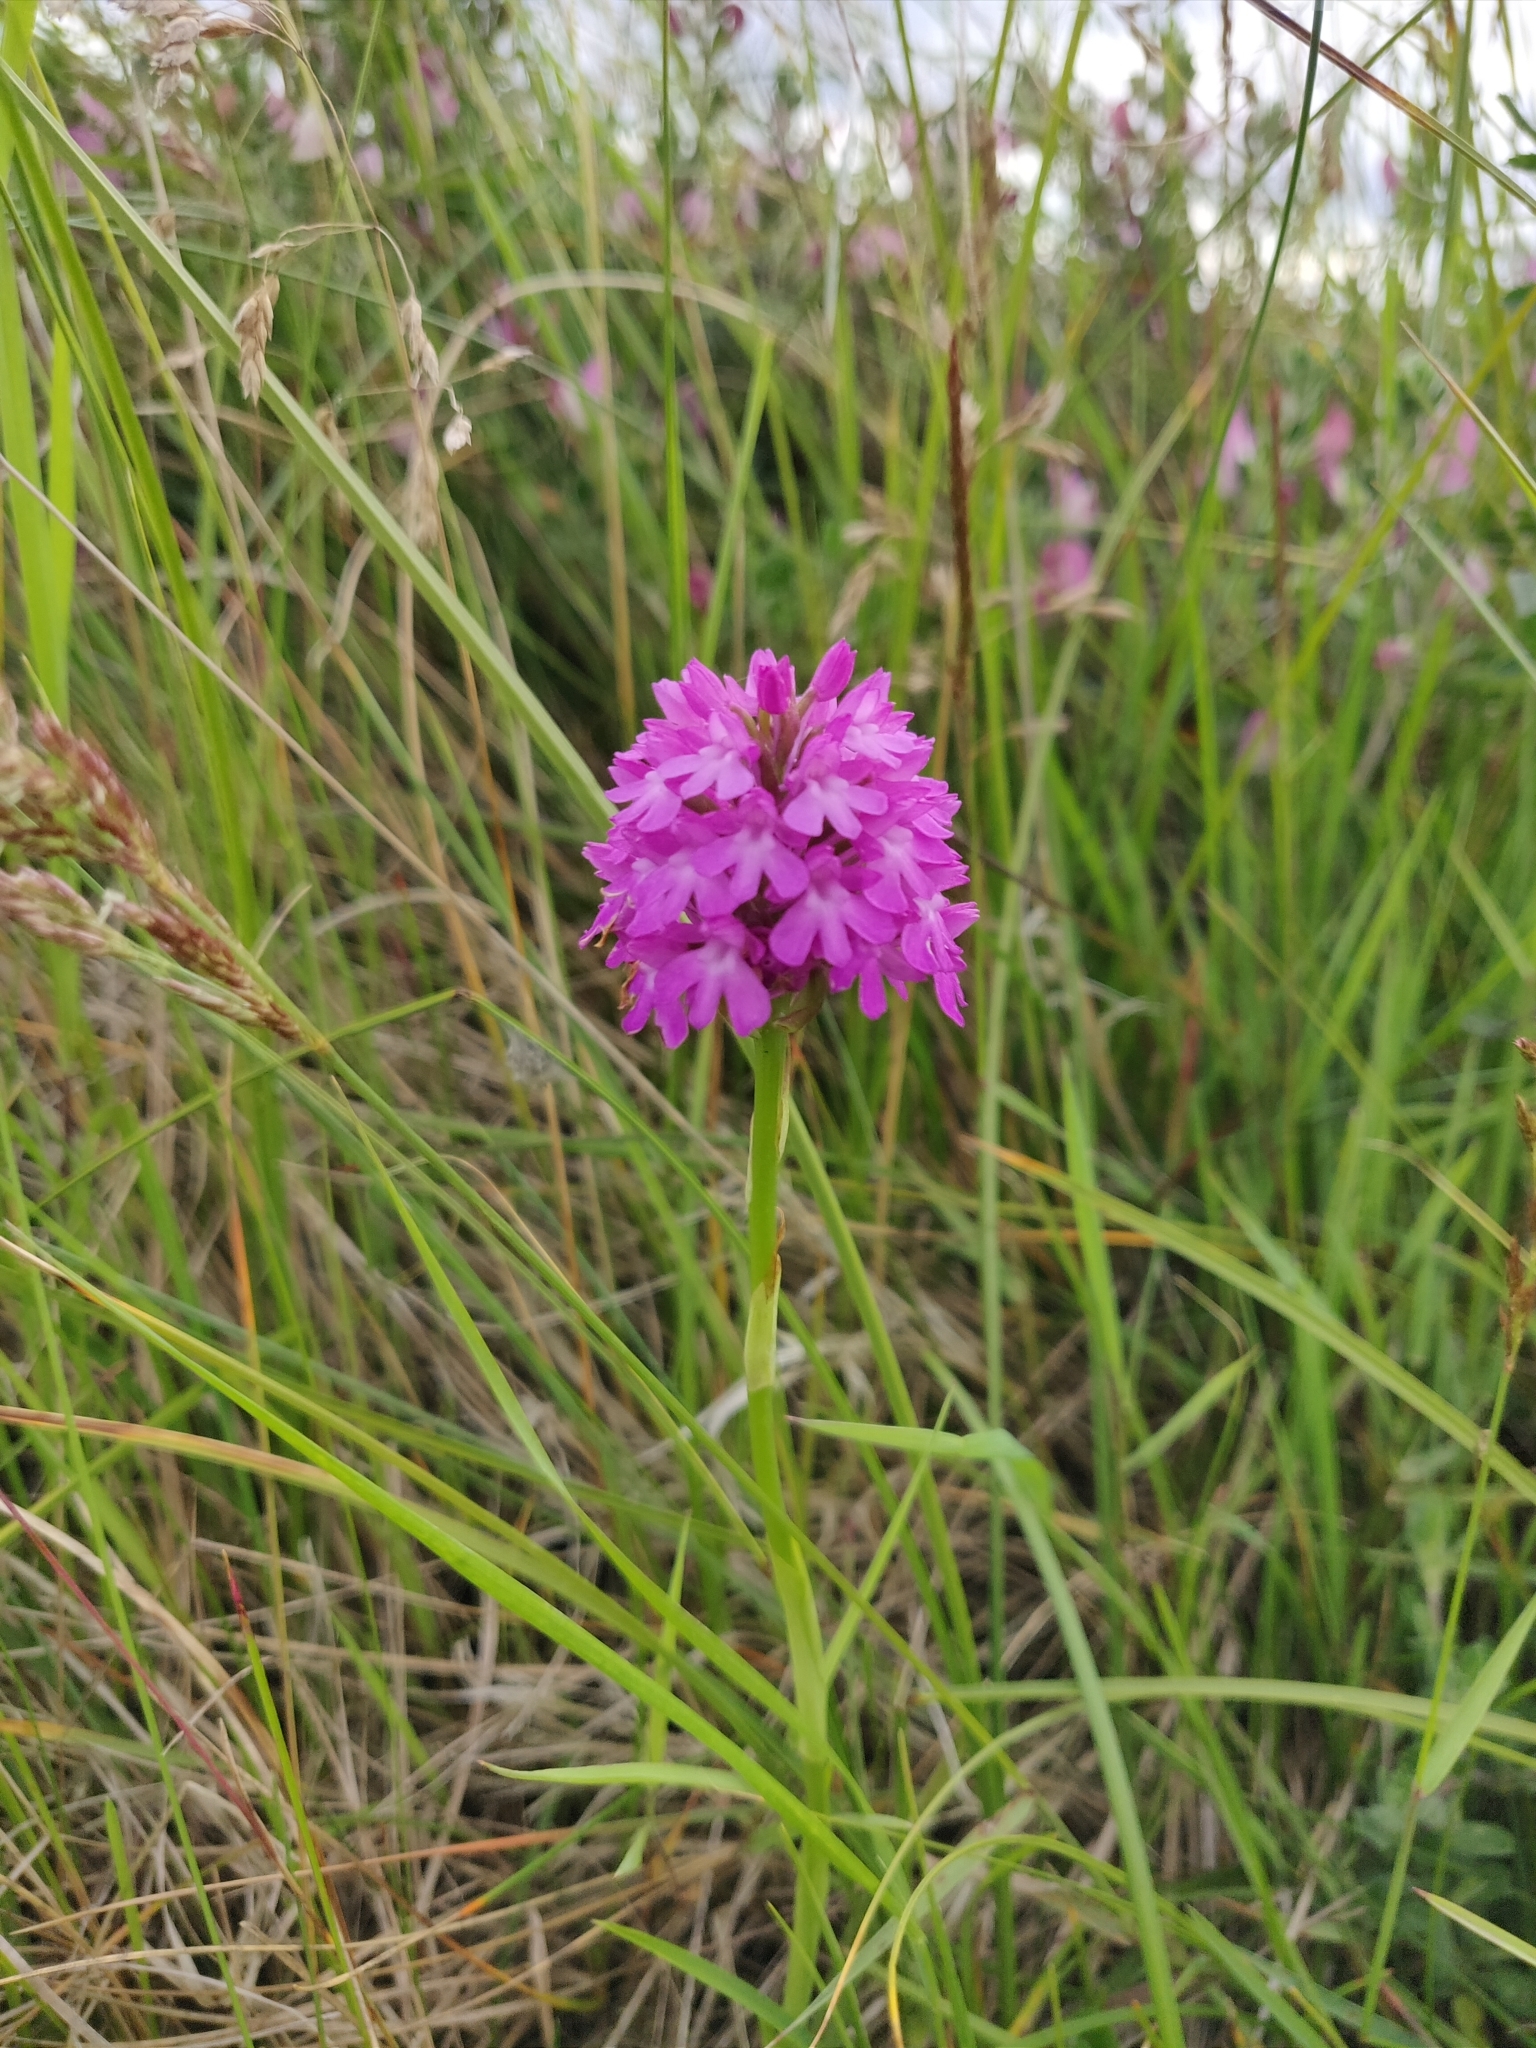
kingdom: Plantae
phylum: Tracheophyta
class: Liliopsida
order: Asparagales
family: Orchidaceae
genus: Anacamptis
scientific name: Anacamptis pyramidalis
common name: Pyramidal orchid
